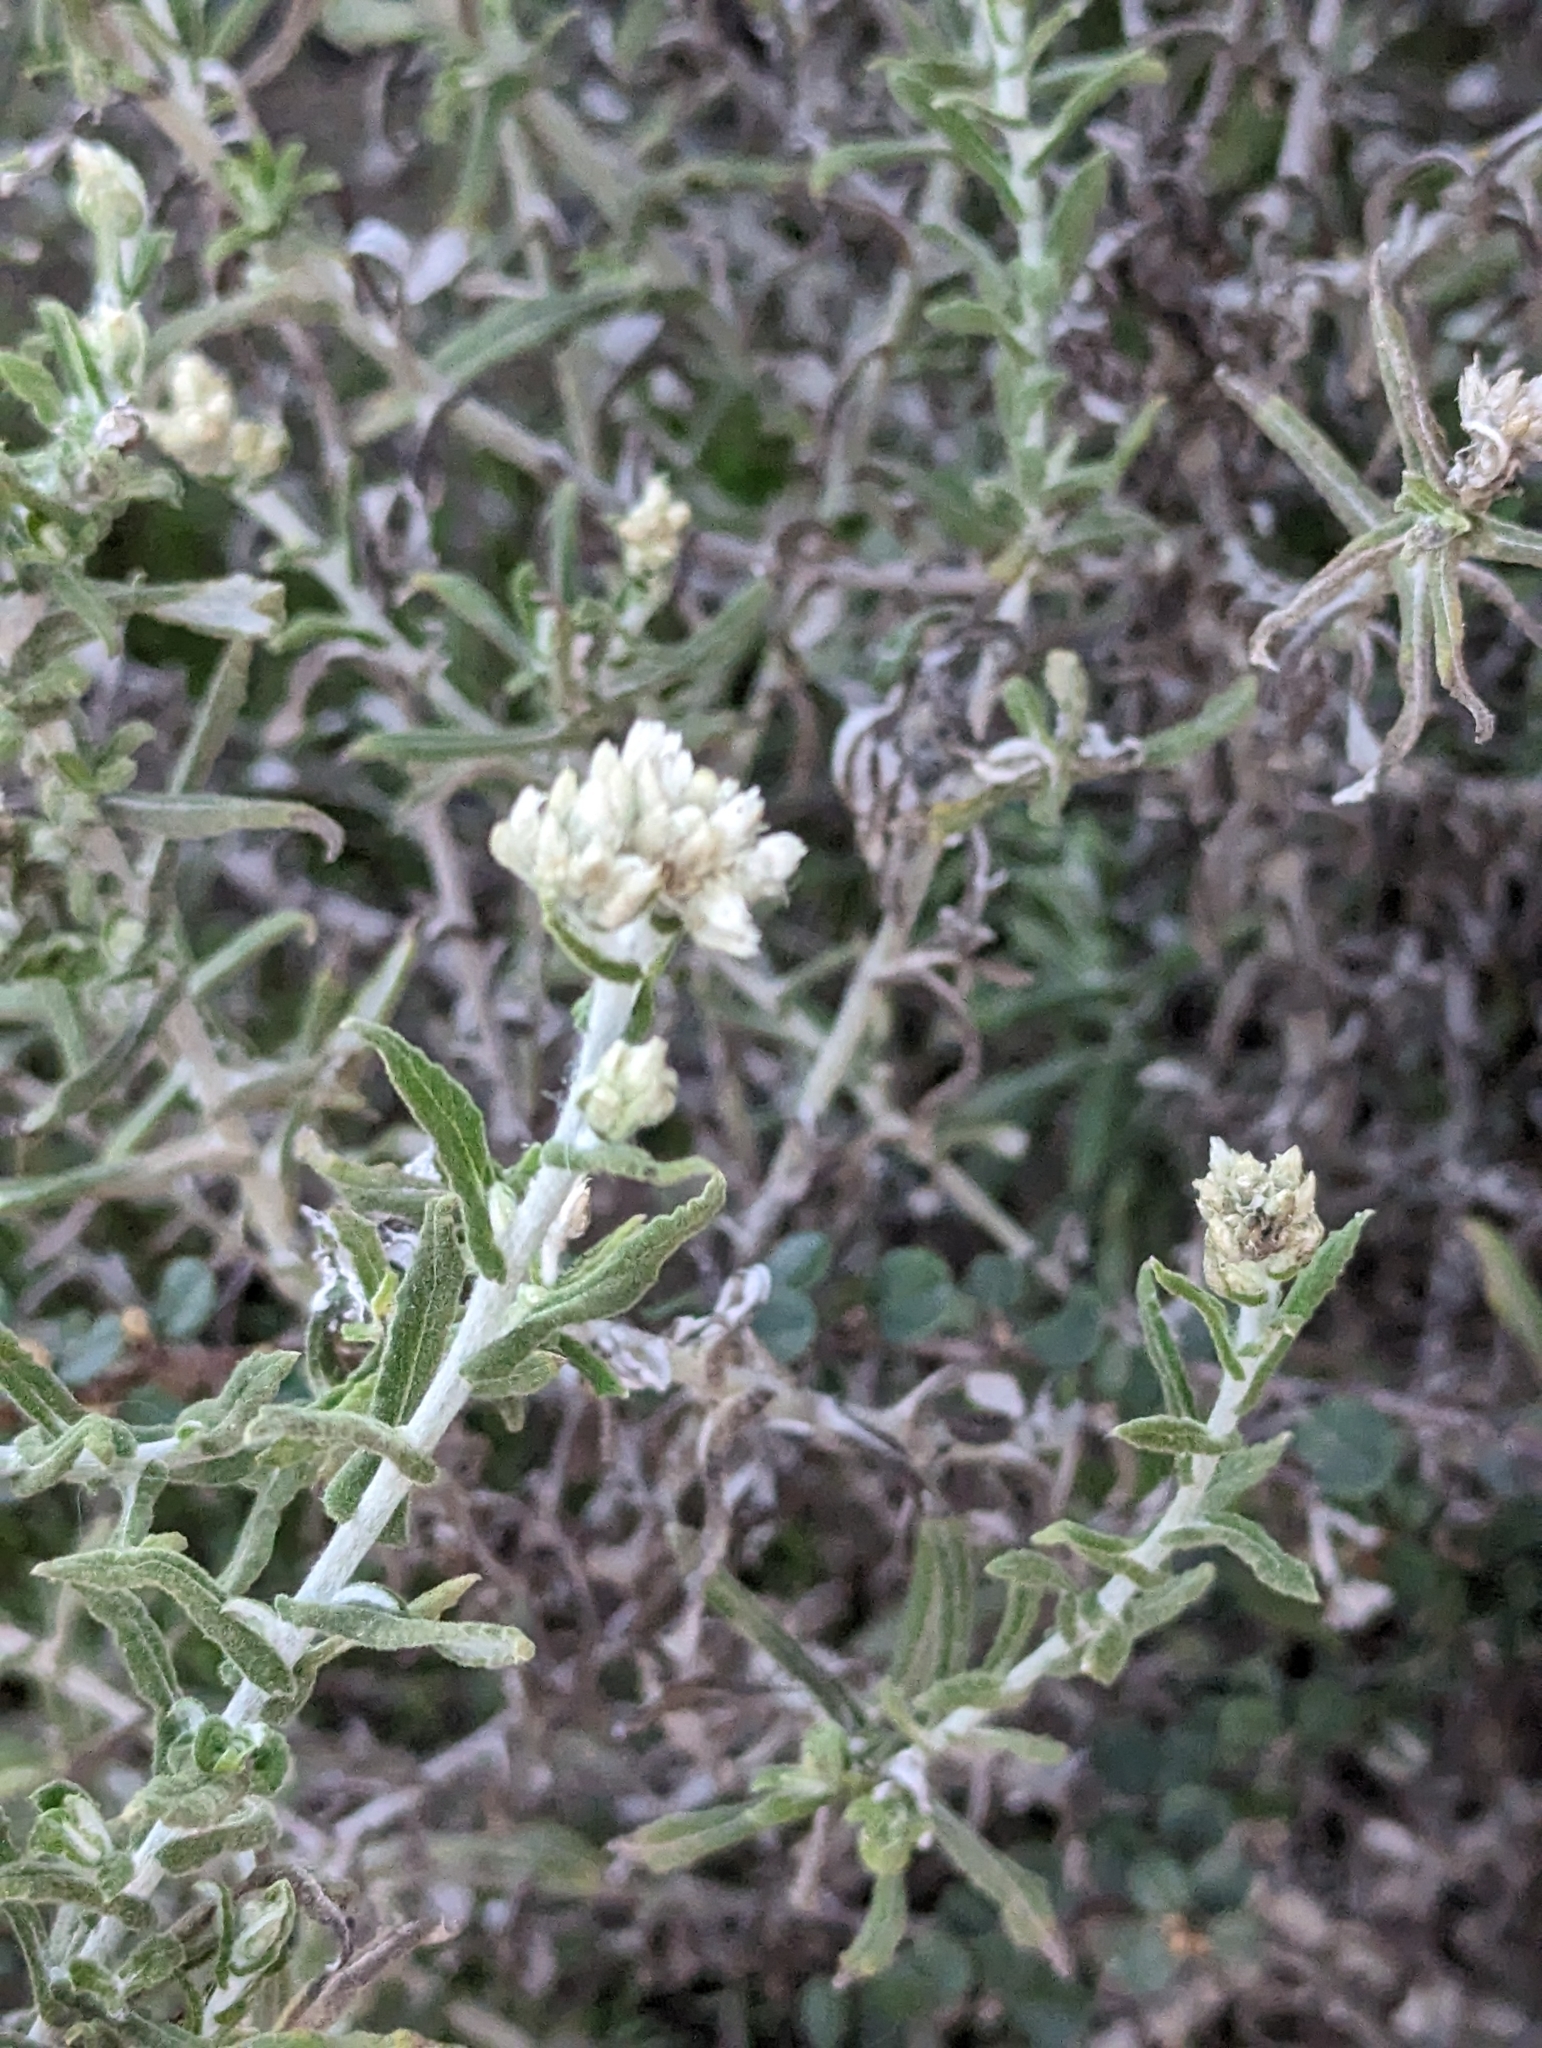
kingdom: Plantae
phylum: Tracheophyta
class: Magnoliopsida
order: Asterales
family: Asteraceae
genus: Pseudognaphalium
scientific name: Pseudognaphalium biolettii
